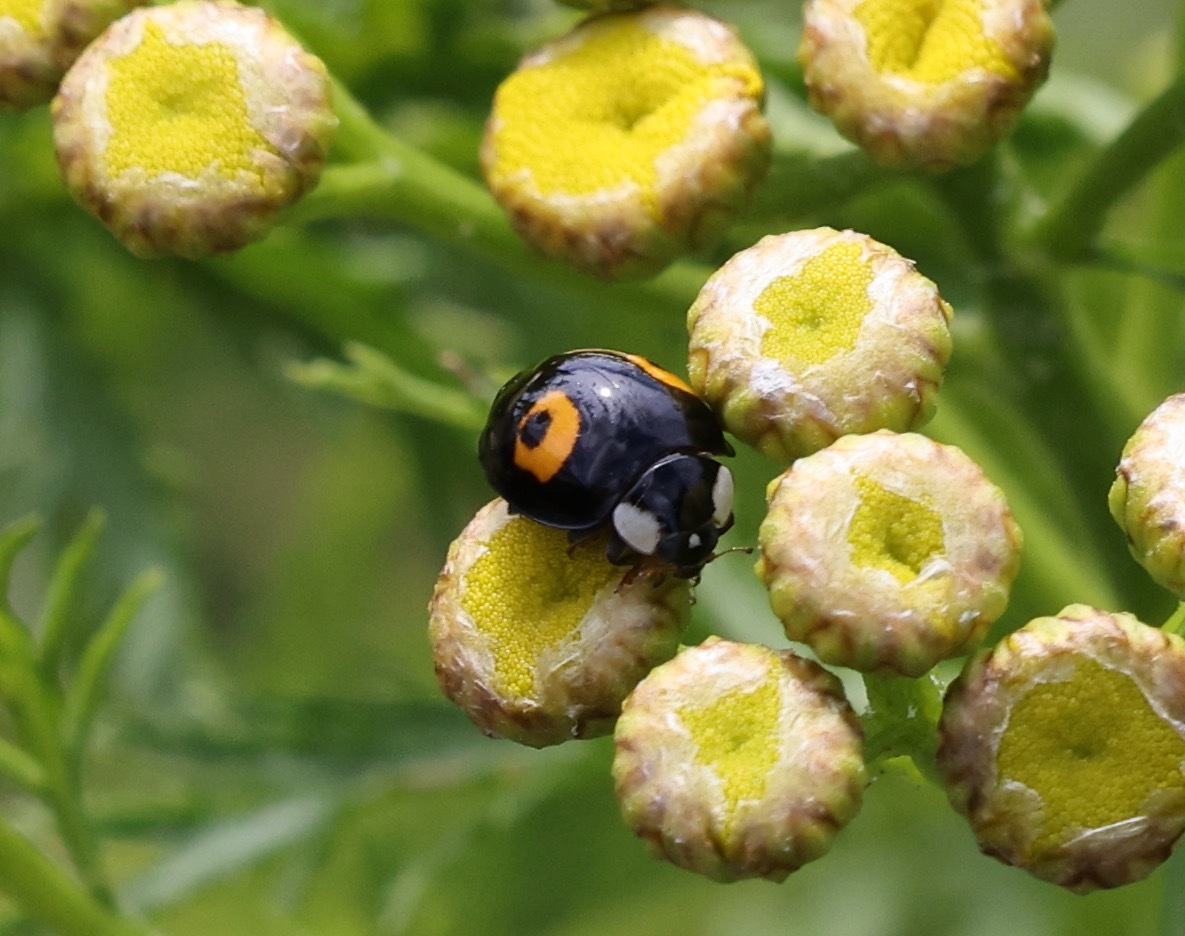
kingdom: Animalia
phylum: Arthropoda
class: Insecta
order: Coleoptera
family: Coccinellidae
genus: Harmonia
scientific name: Harmonia axyridis
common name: Harlequin ladybird
